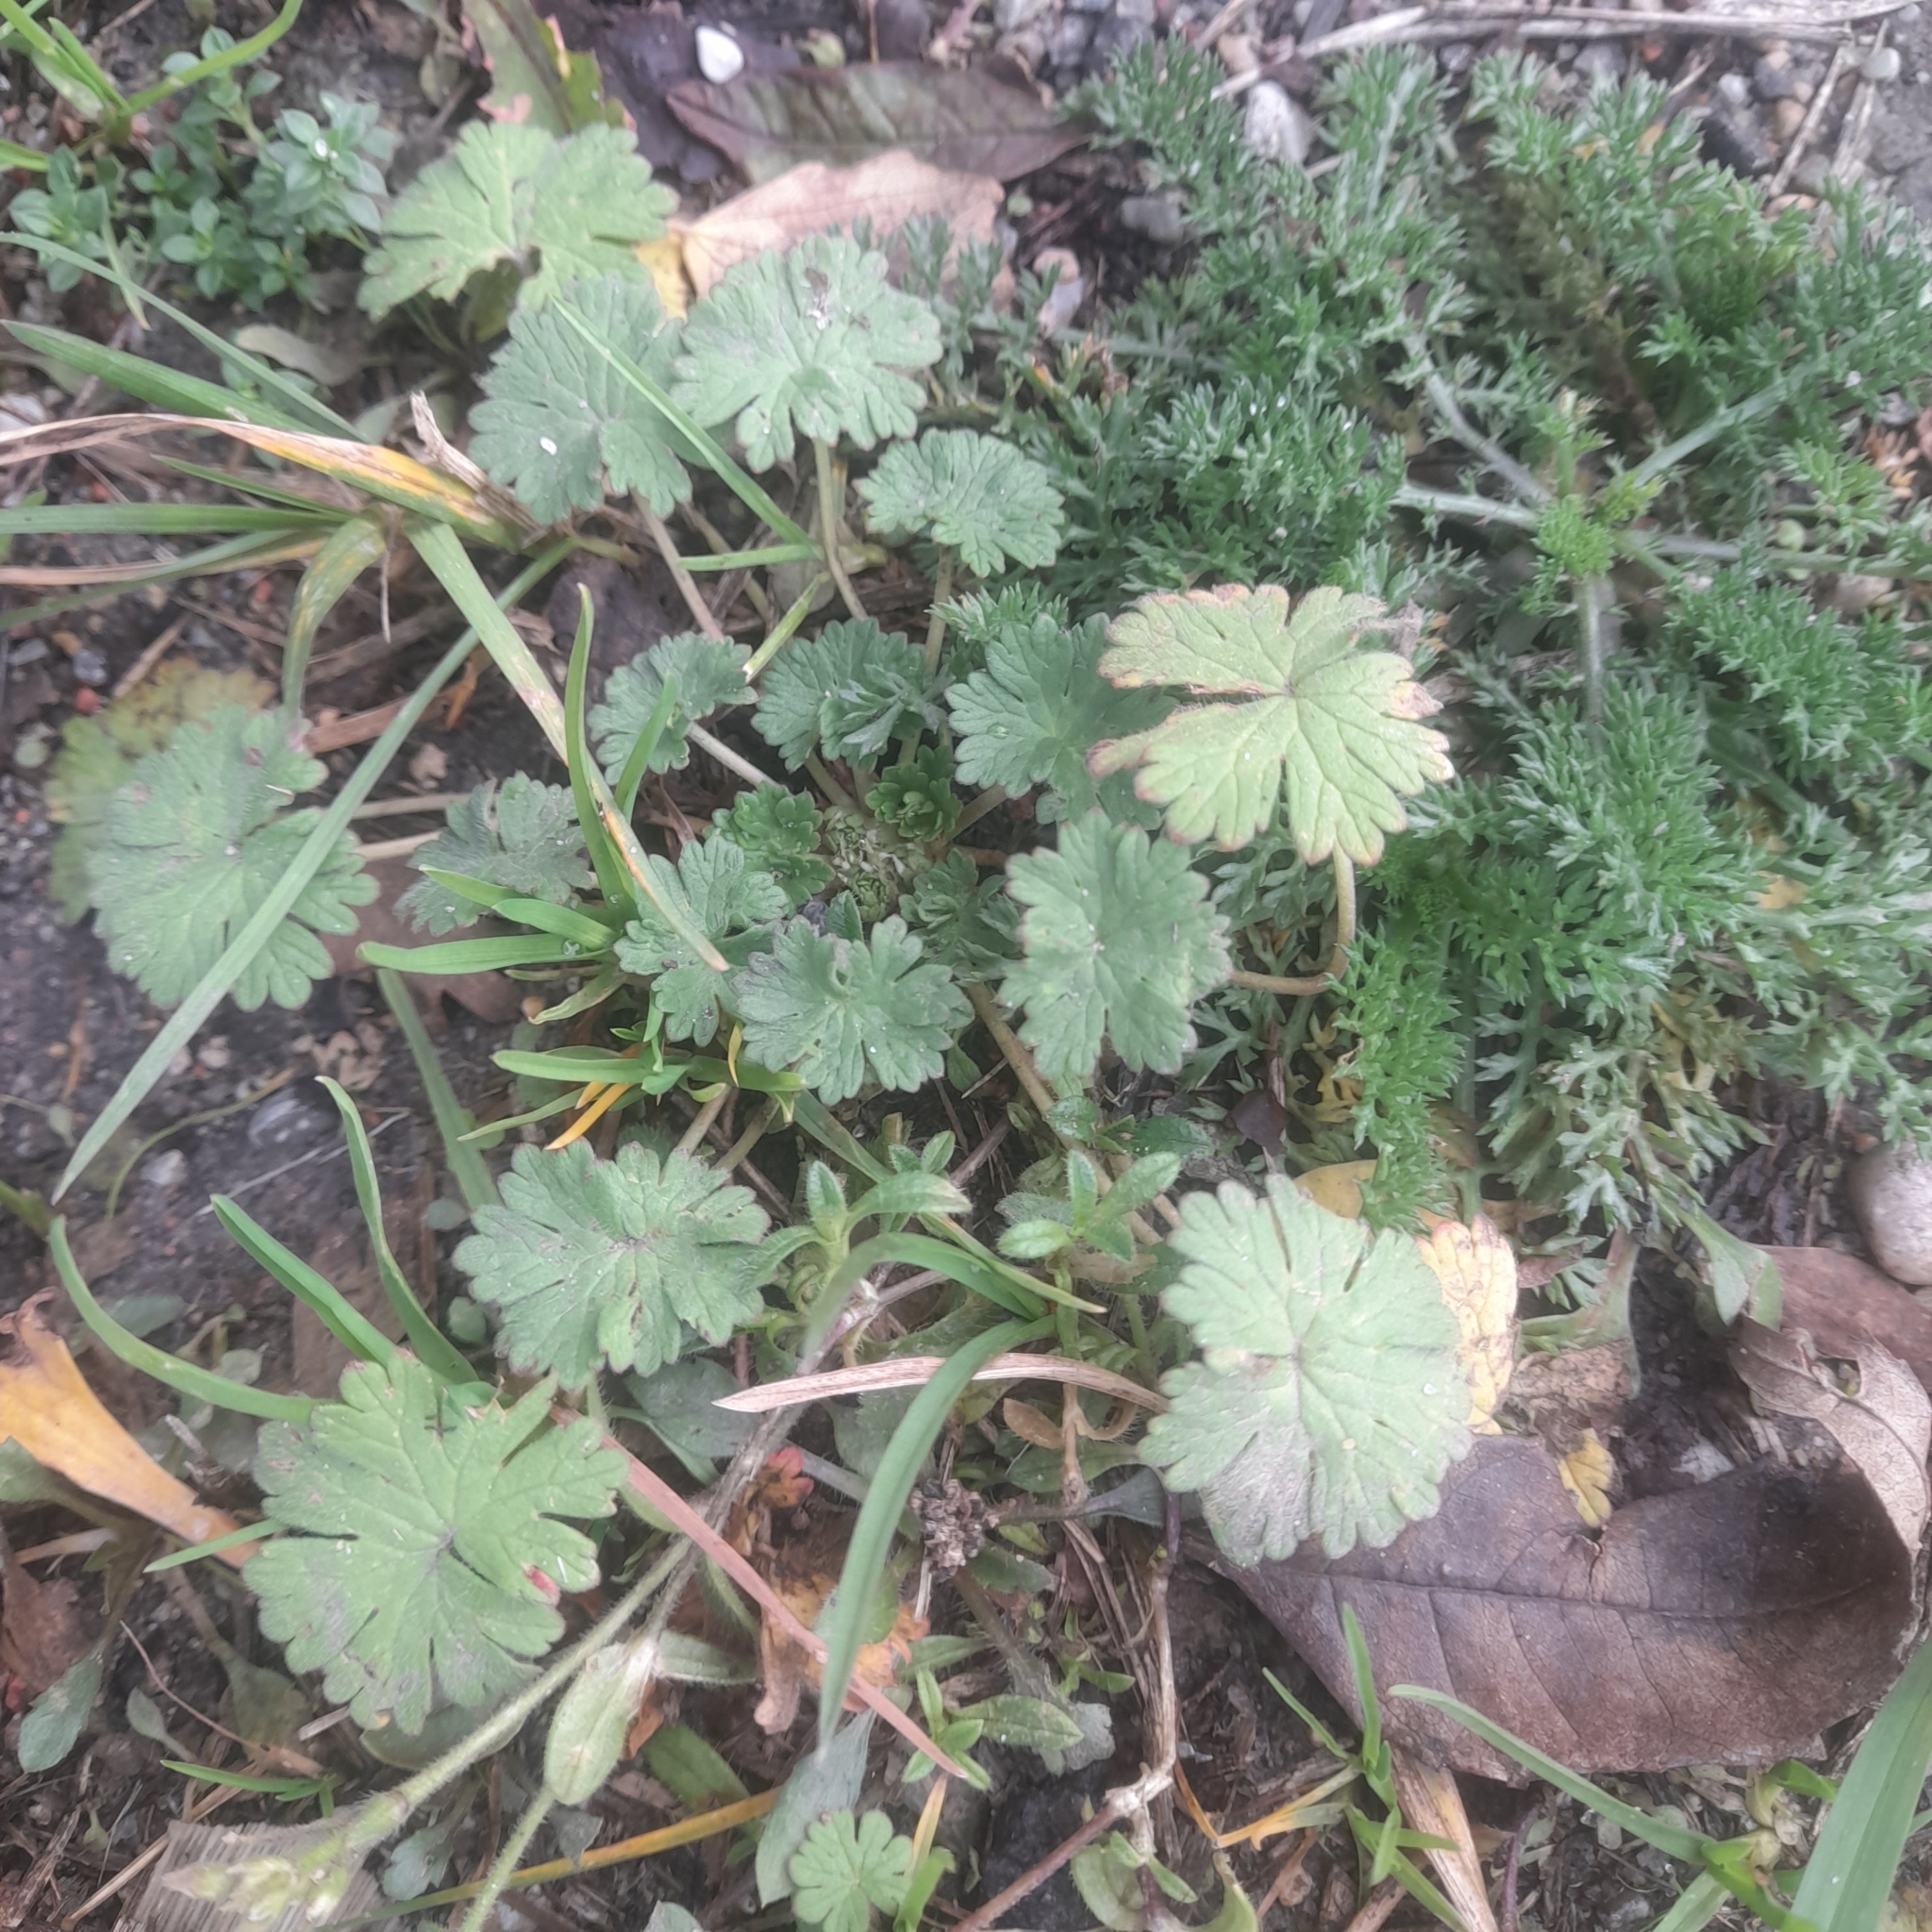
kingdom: Plantae
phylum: Tracheophyta
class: Magnoliopsida
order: Geraniales
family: Geraniaceae
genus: Geranium
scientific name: Geranium pusillum
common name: Small geranium
